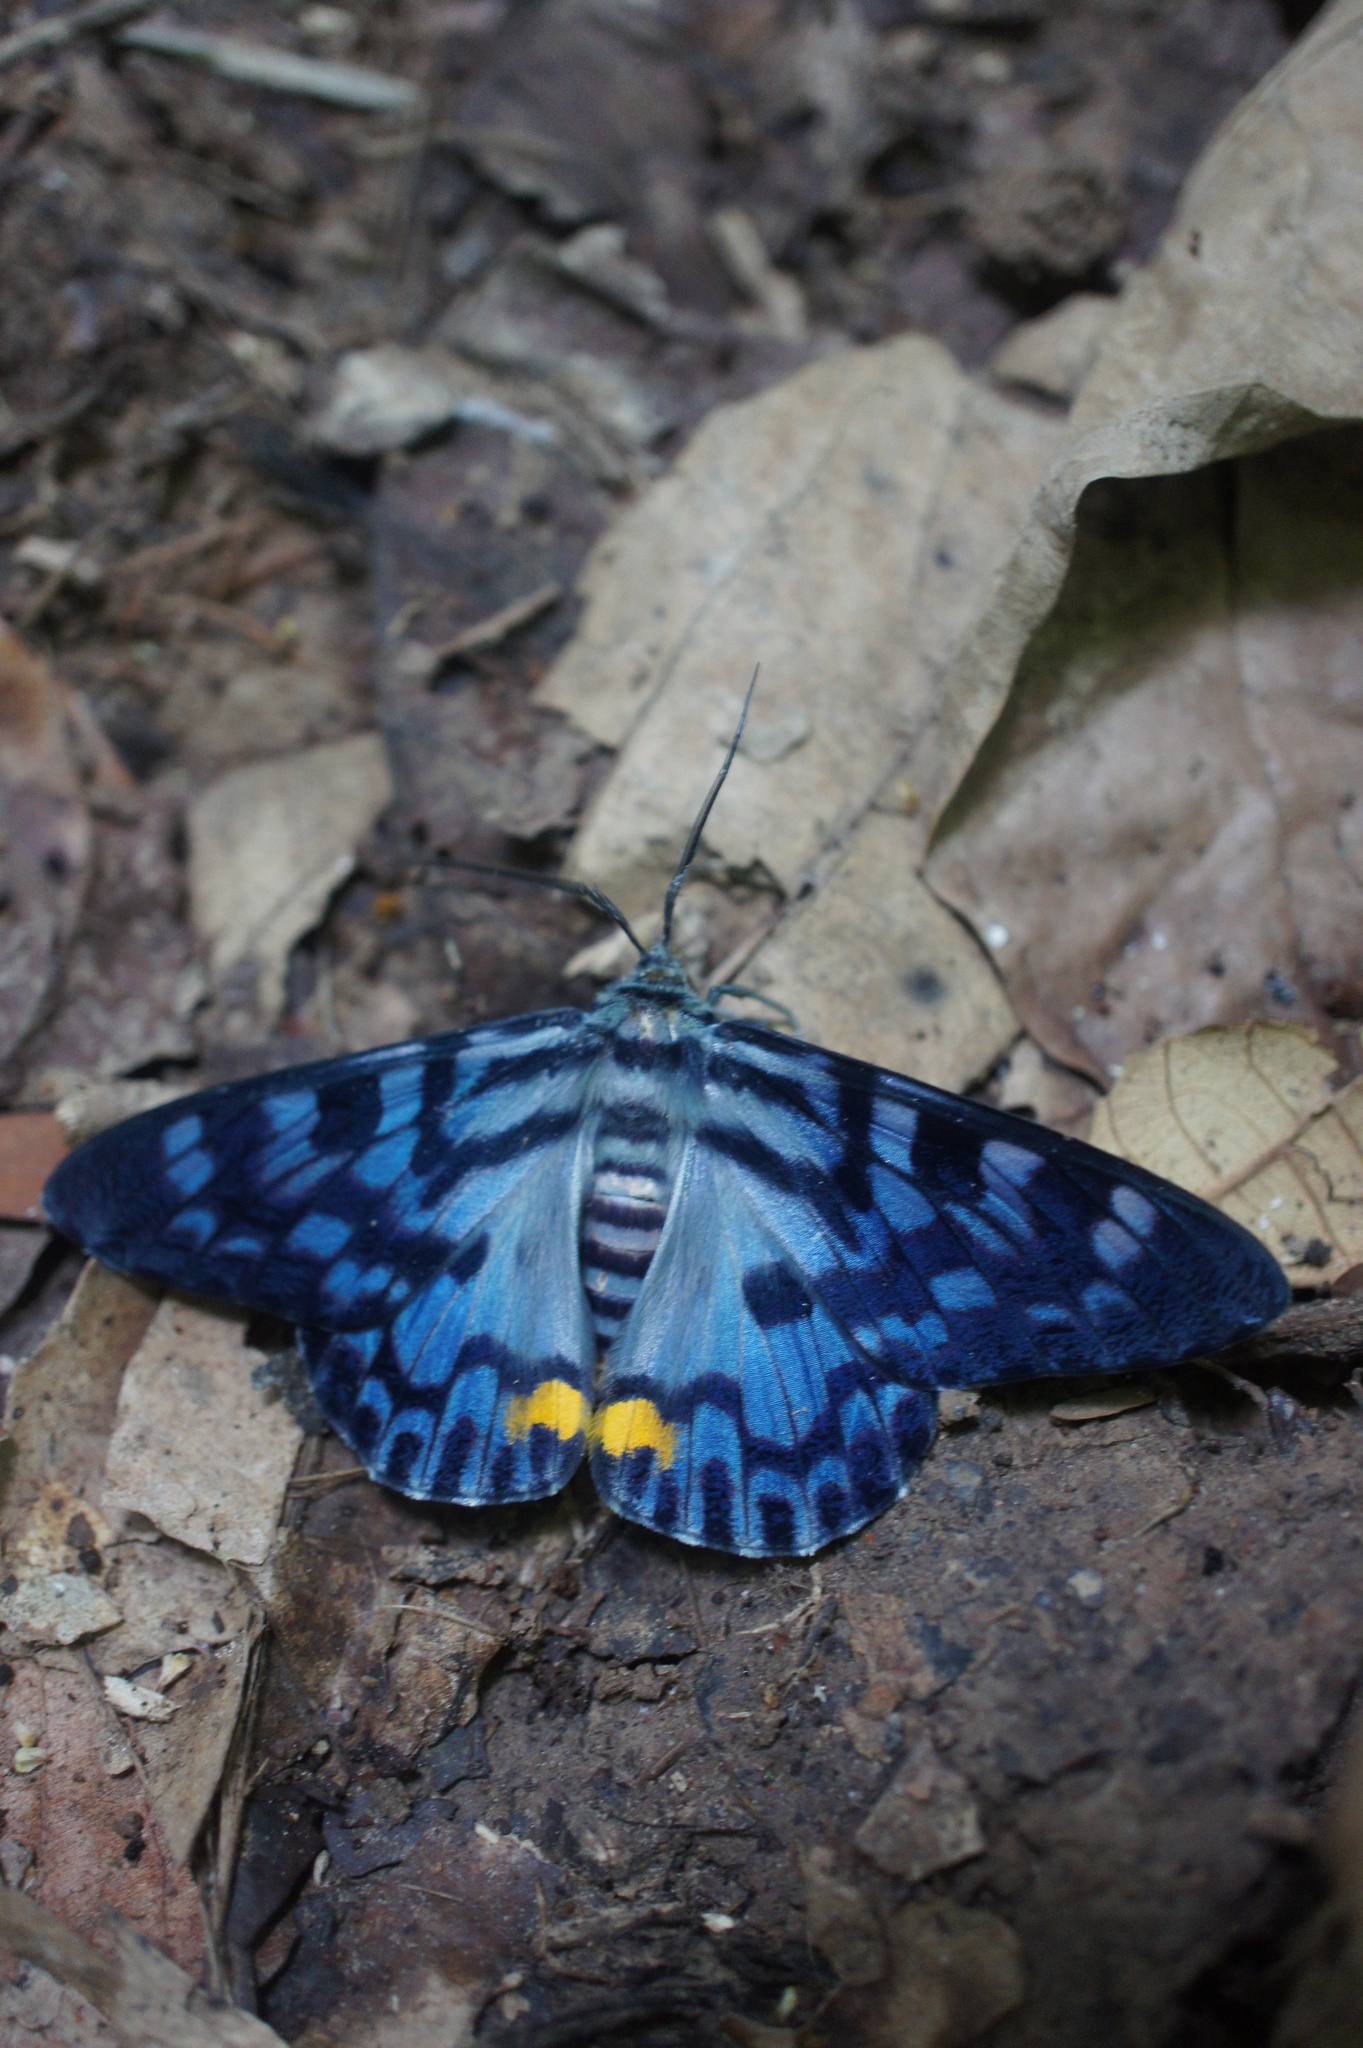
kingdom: Animalia
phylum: Arthropoda
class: Insecta
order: Lepidoptera
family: Geometridae
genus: Dysphania
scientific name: Dysphania transducta
